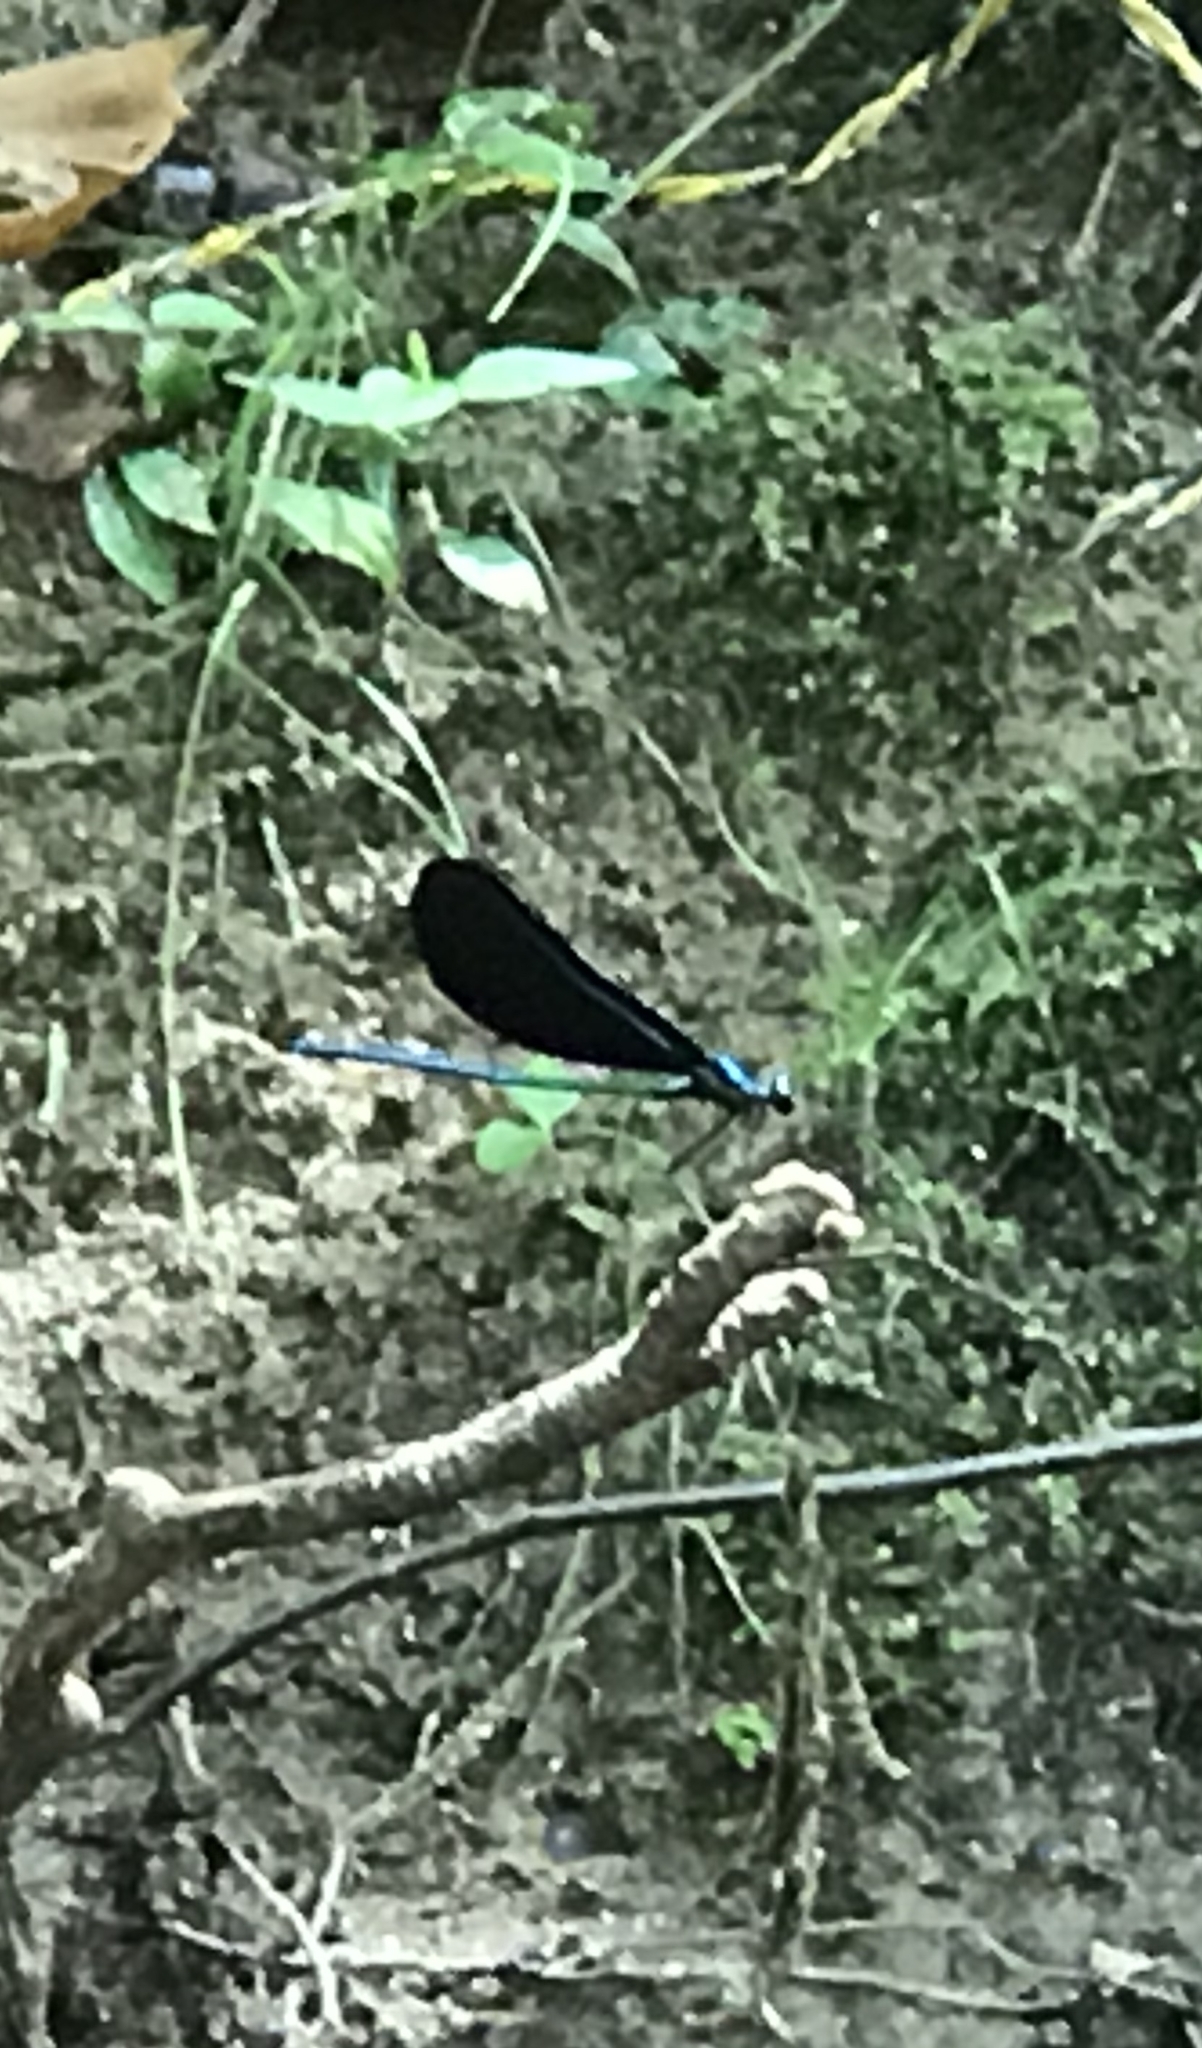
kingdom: Animalia
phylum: Arthropoda
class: Insecta
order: Odonata
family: Calopterygidae
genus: Calopteryx
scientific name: Calopteryx maculata
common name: Ebony jewelwing
